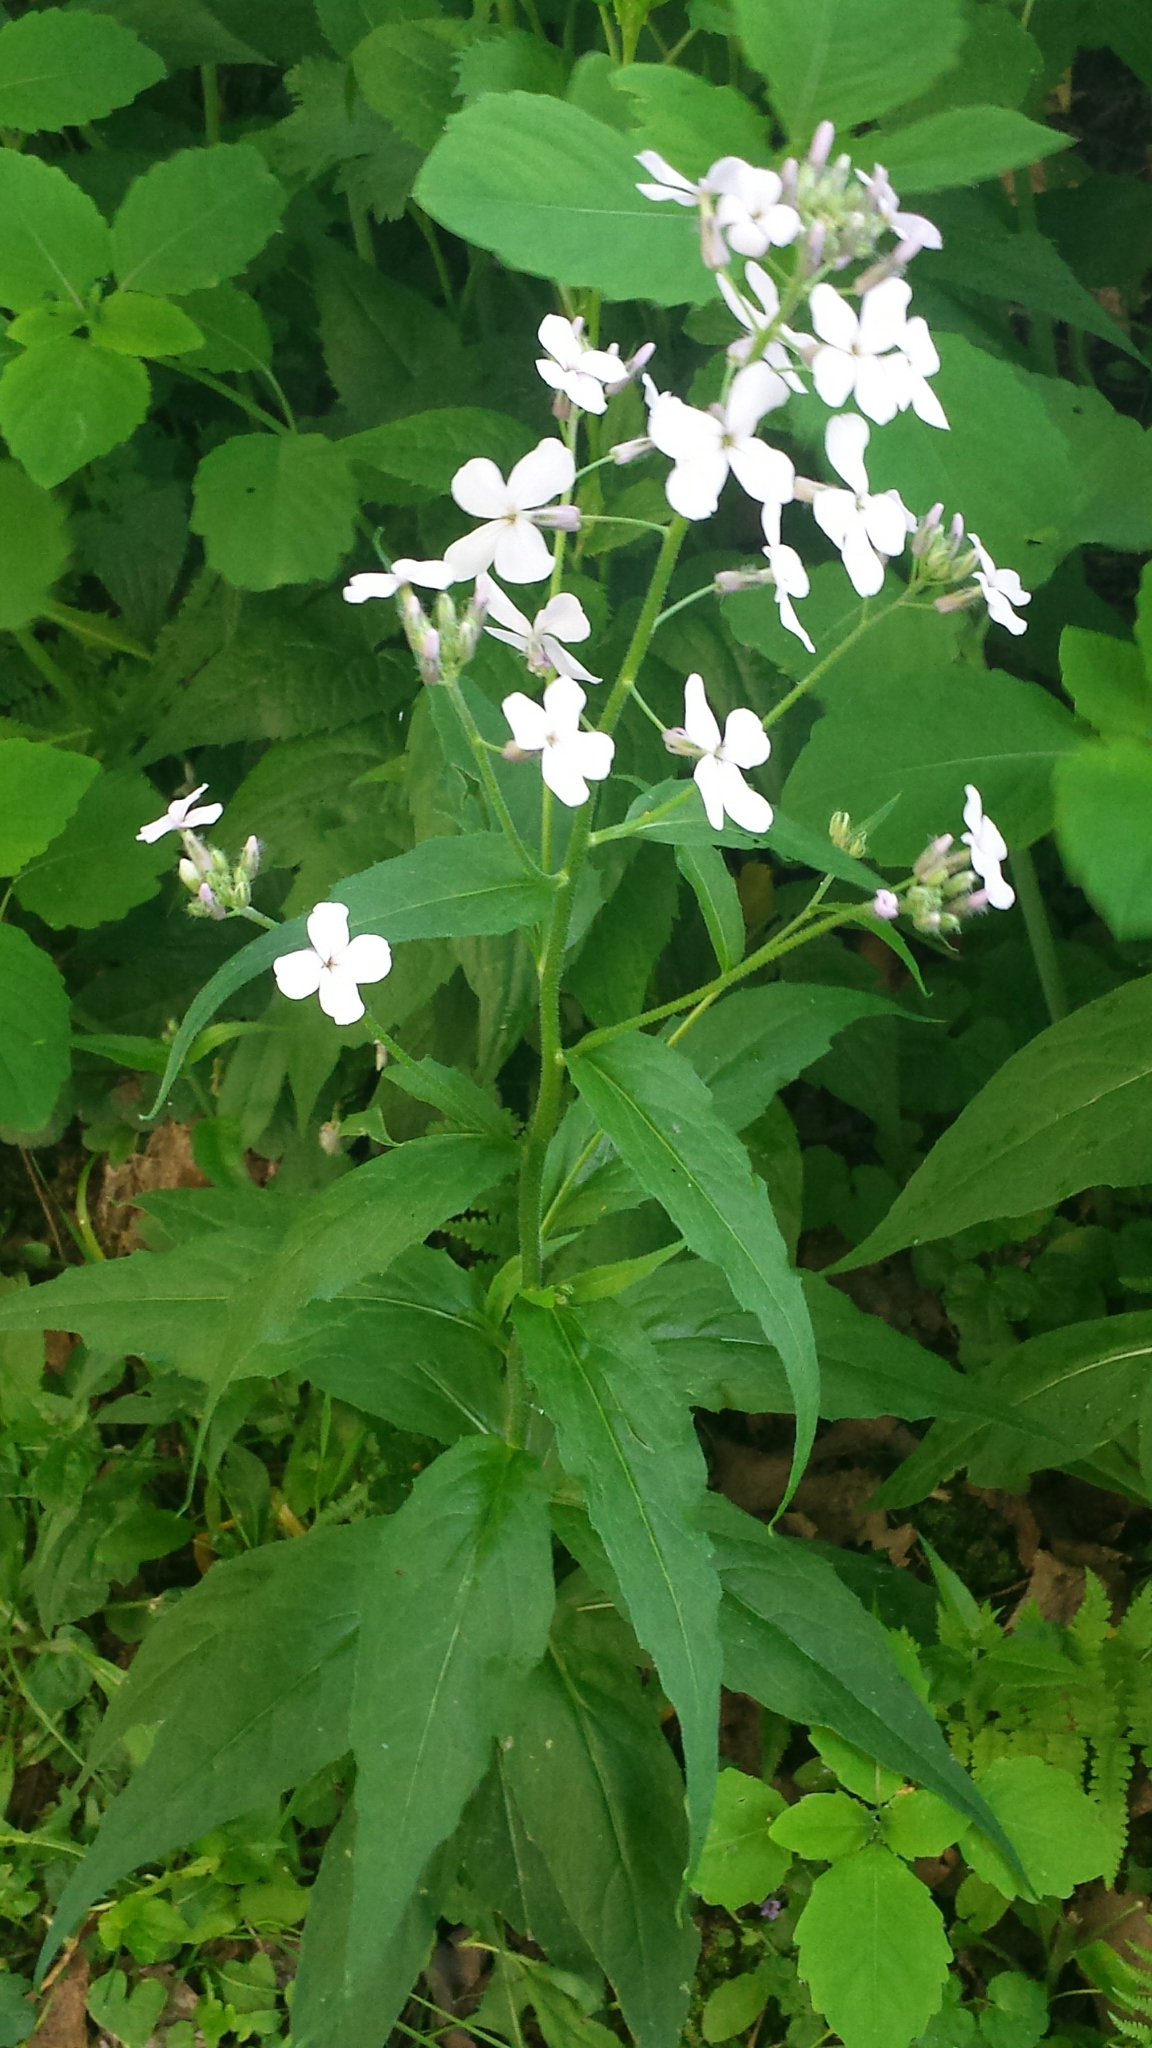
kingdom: Plantae
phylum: Tracheophyta
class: Magnoliopsida
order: Brassicales
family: Brassicaceae
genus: Hesperis
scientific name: Hesperis matronalis
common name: Dame's-violet
